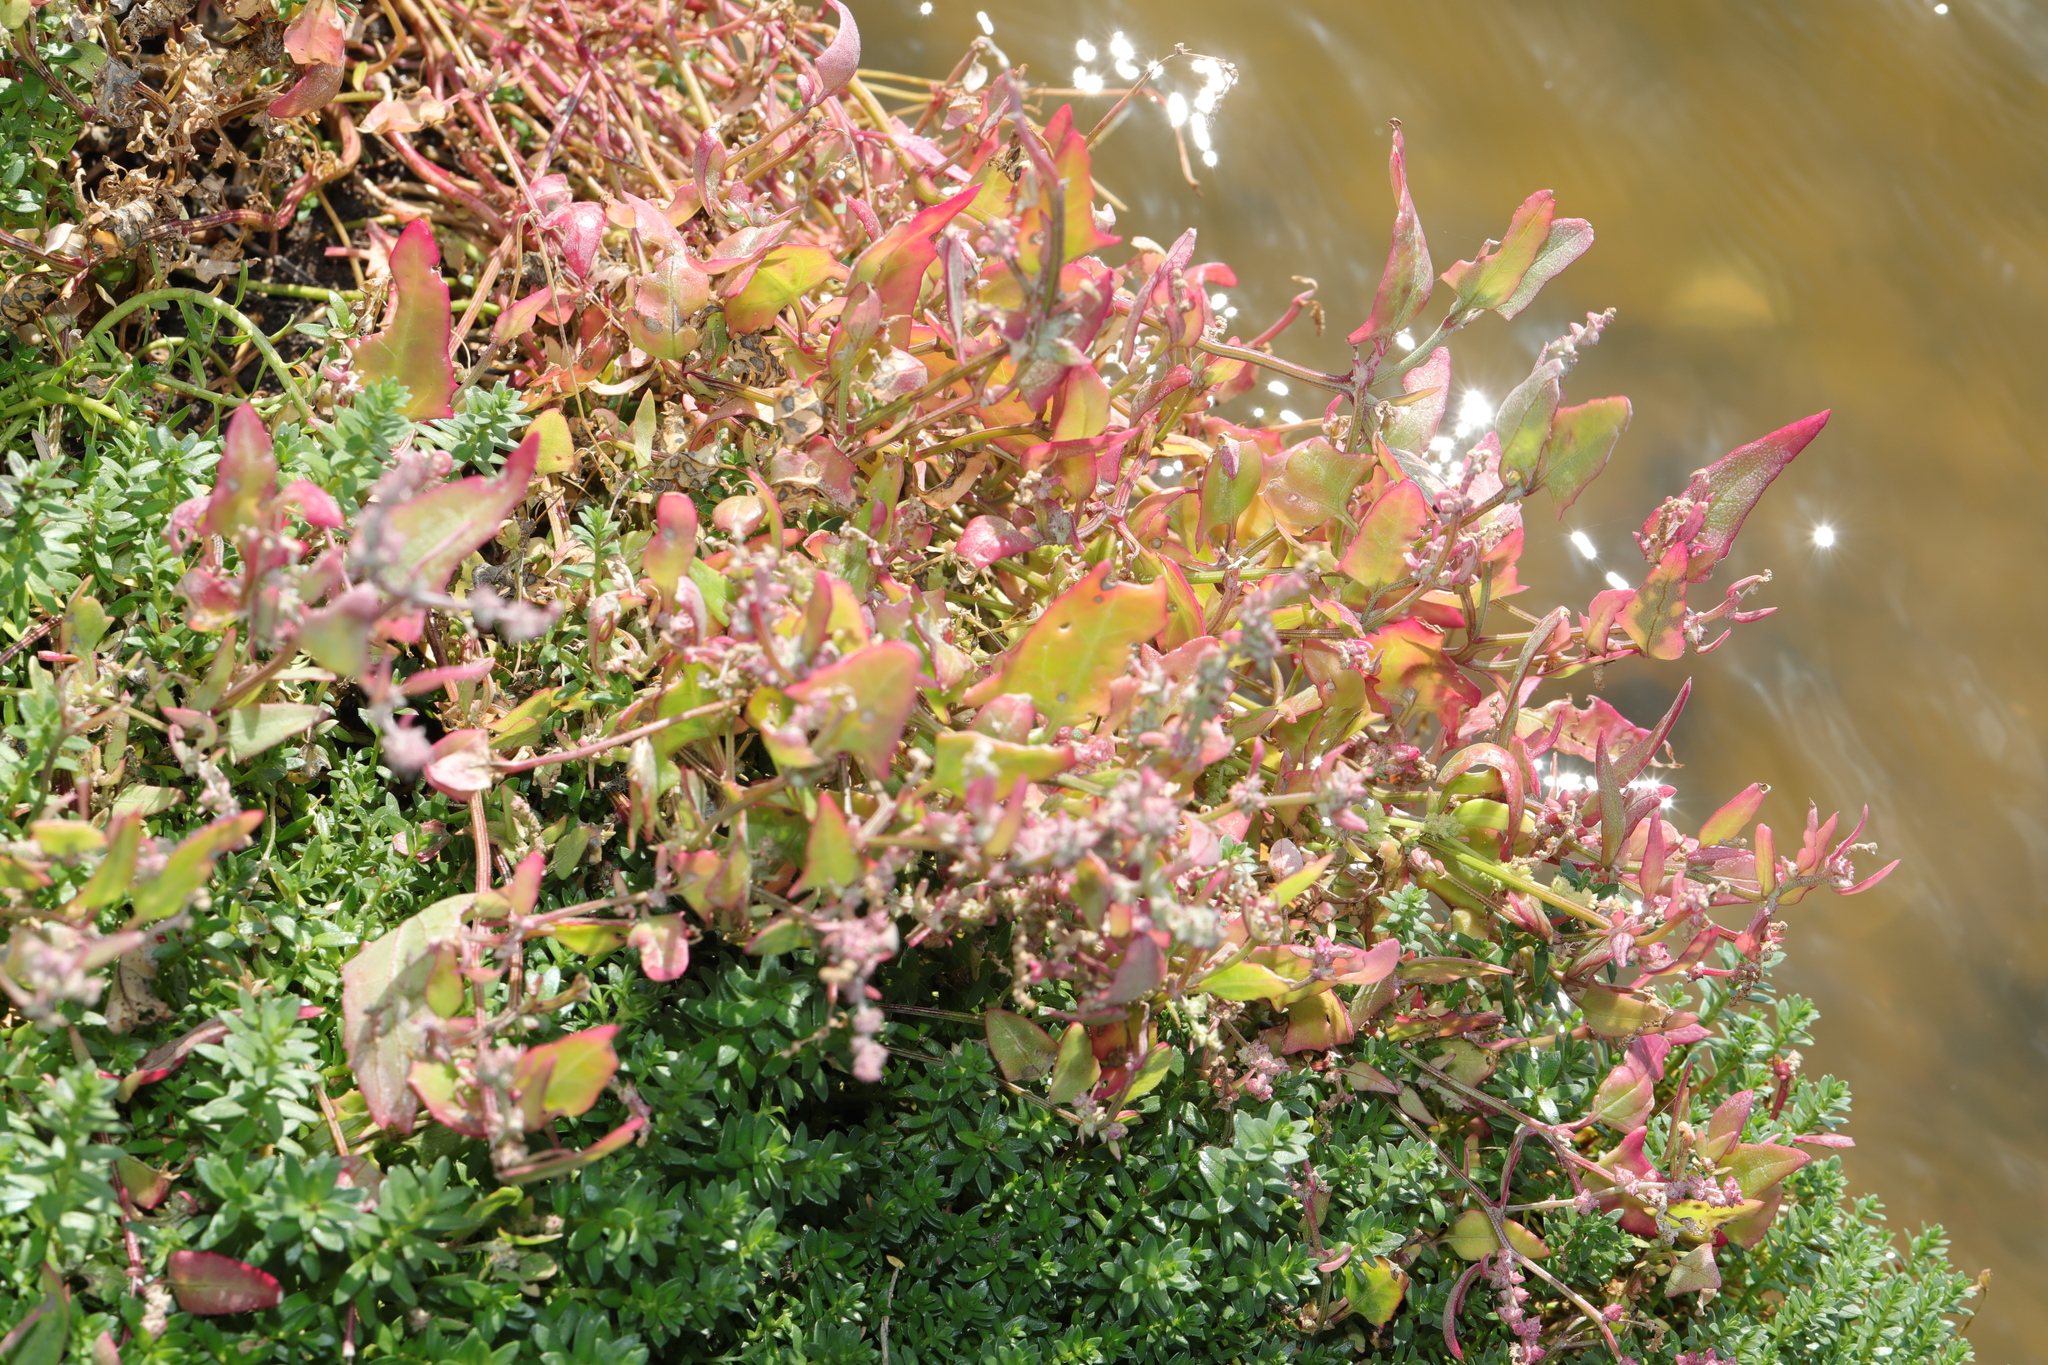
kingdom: Plantae
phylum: Tracheophyta
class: Magnoliopsida
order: Caryophyllales
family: Amaranthaceae
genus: Atriplex
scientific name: Atriplex prostrata
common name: Spear-leaved orache
